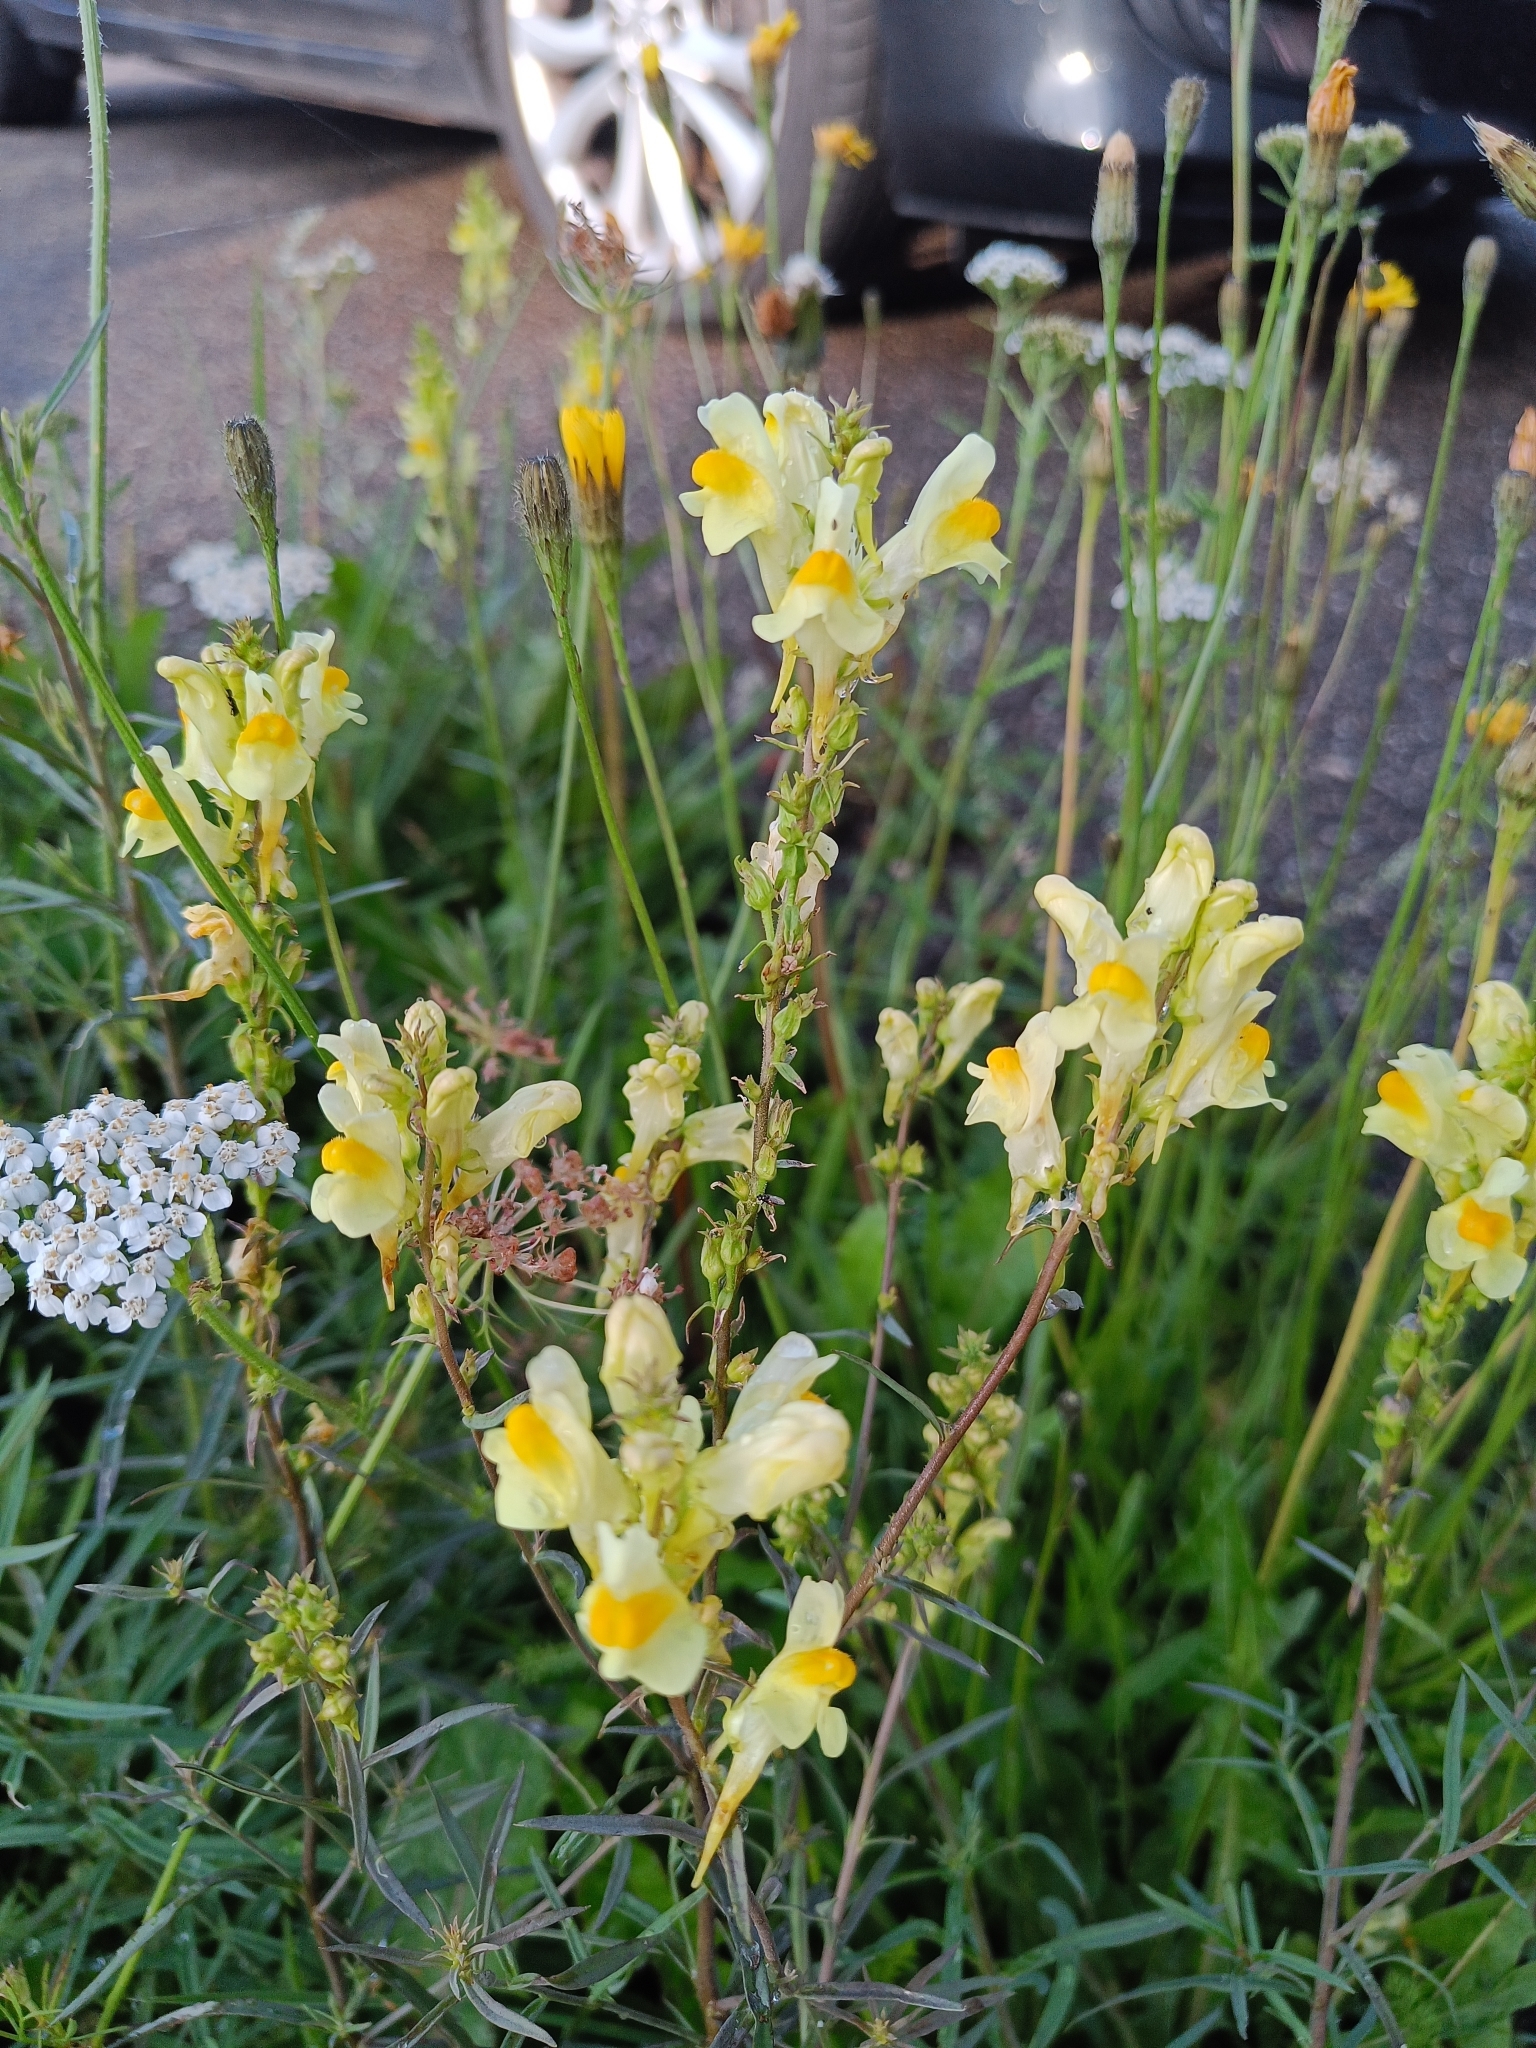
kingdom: Plantae
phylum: Tracheophyta
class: Magnoliopsida
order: Lamiales
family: Plantaginaceae
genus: Linaria
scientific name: Linaria vulgaris
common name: Butter and eggs
